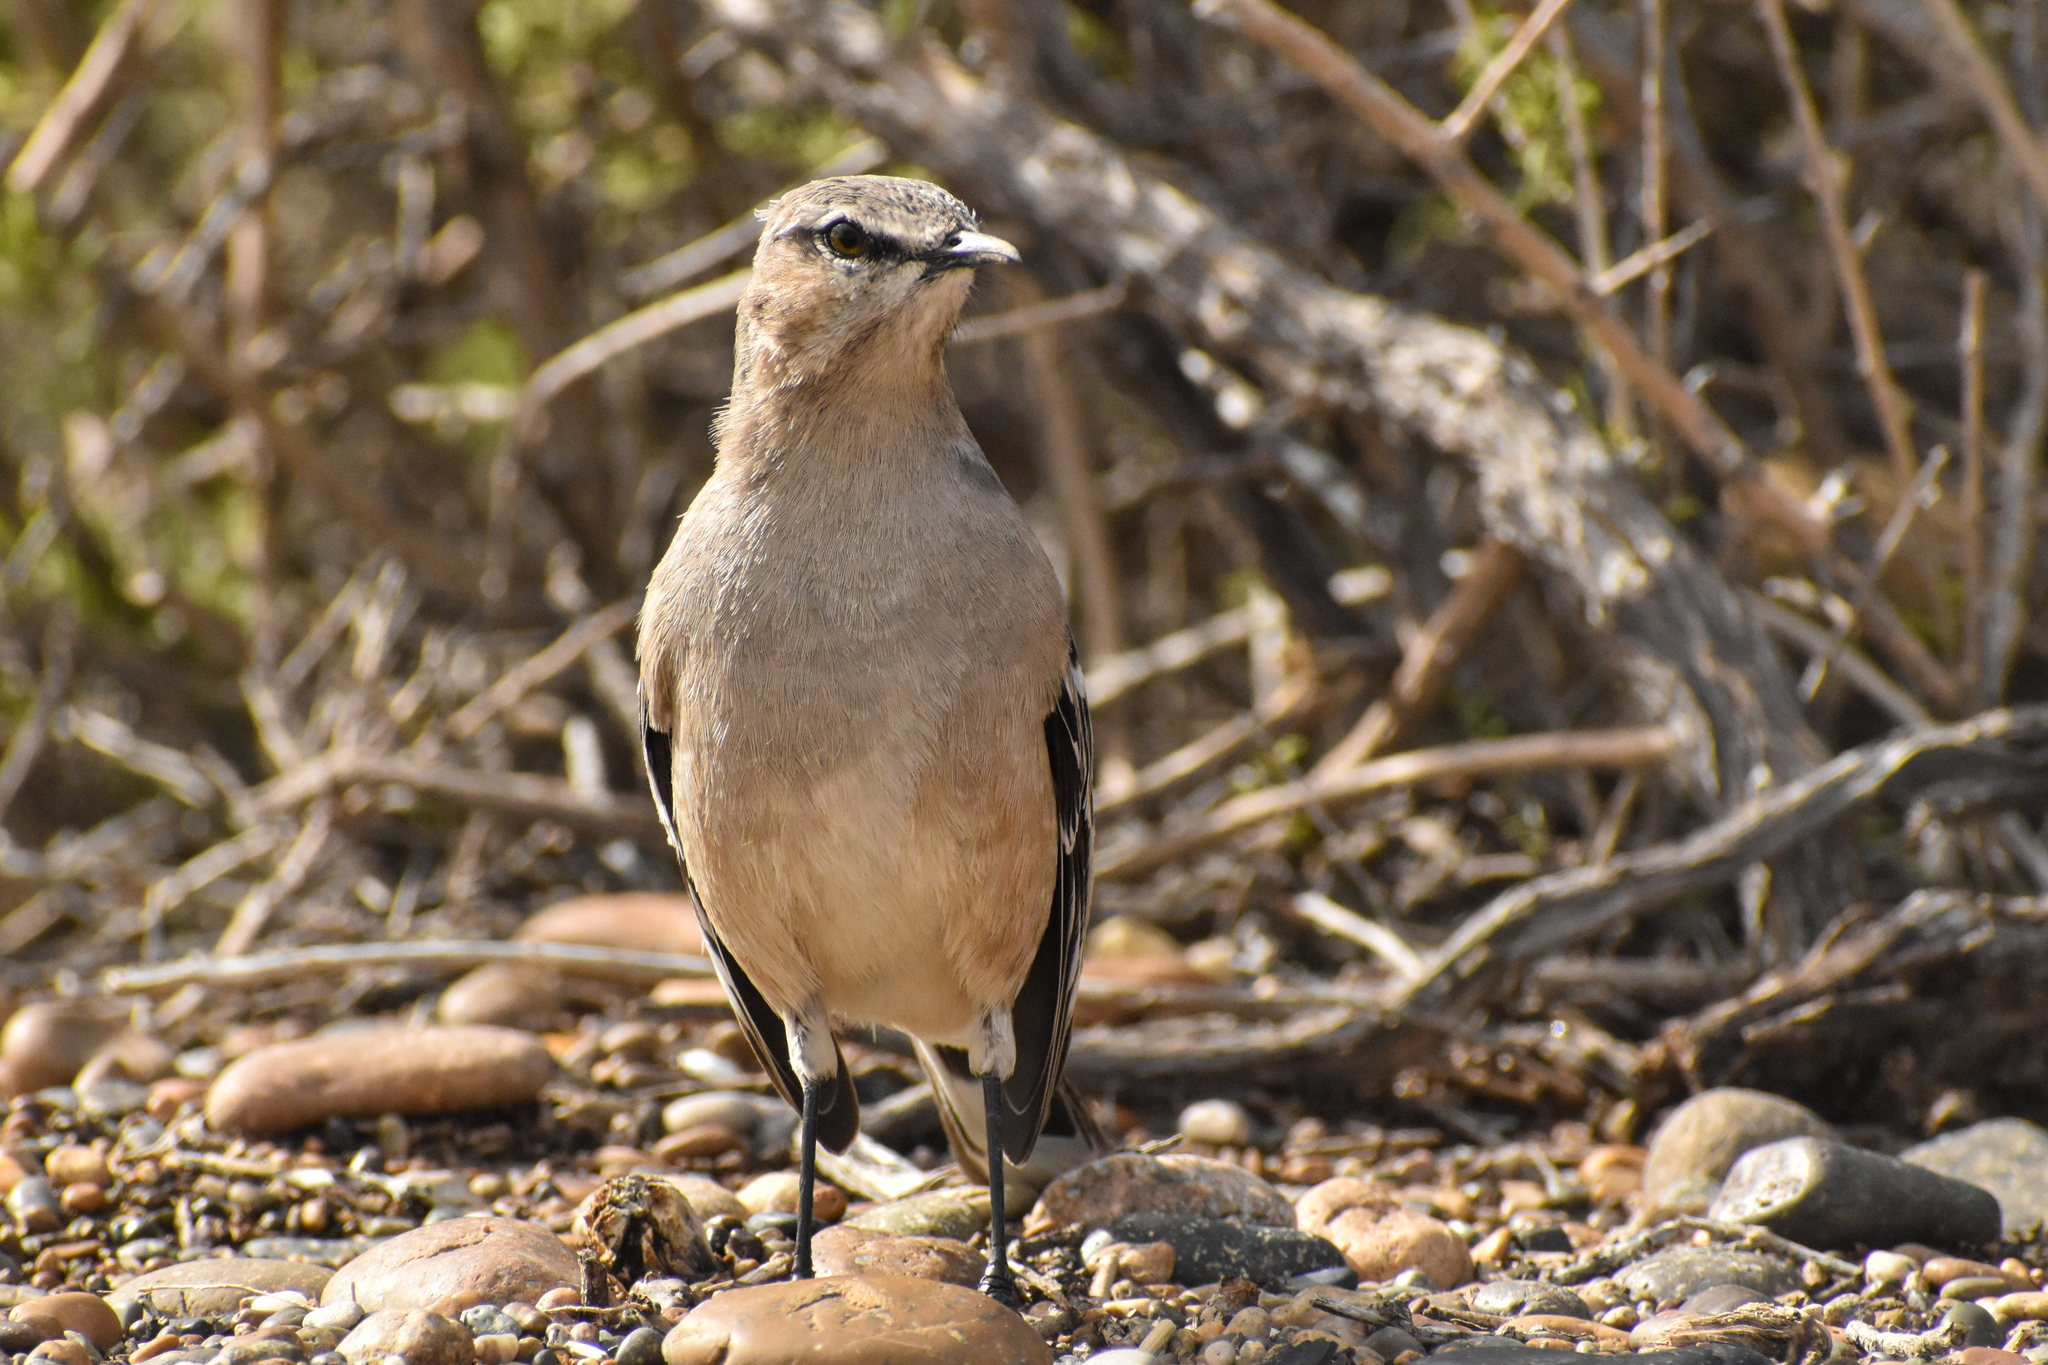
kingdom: Animalia
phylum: Chordata
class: Aves
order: Passeriformes
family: Mimidae
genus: Mimus
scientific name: Mimus patagonicus
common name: Patagonian mockingbird
